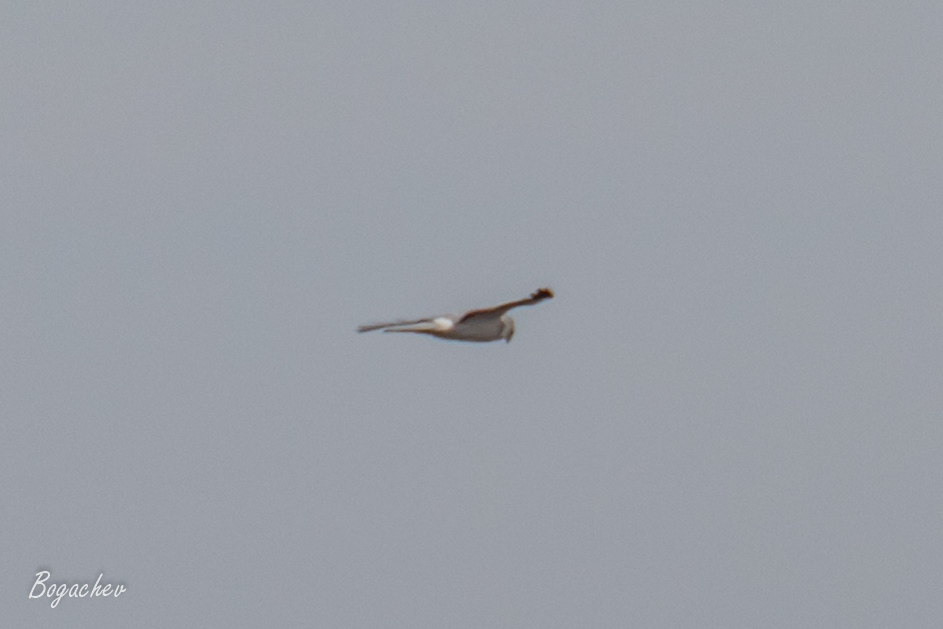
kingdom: Animalia
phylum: Chordata
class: Aves
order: Accipitriformes
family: Accipitridae
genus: Circus
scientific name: Circus pygargus
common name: Montagu's harrier
